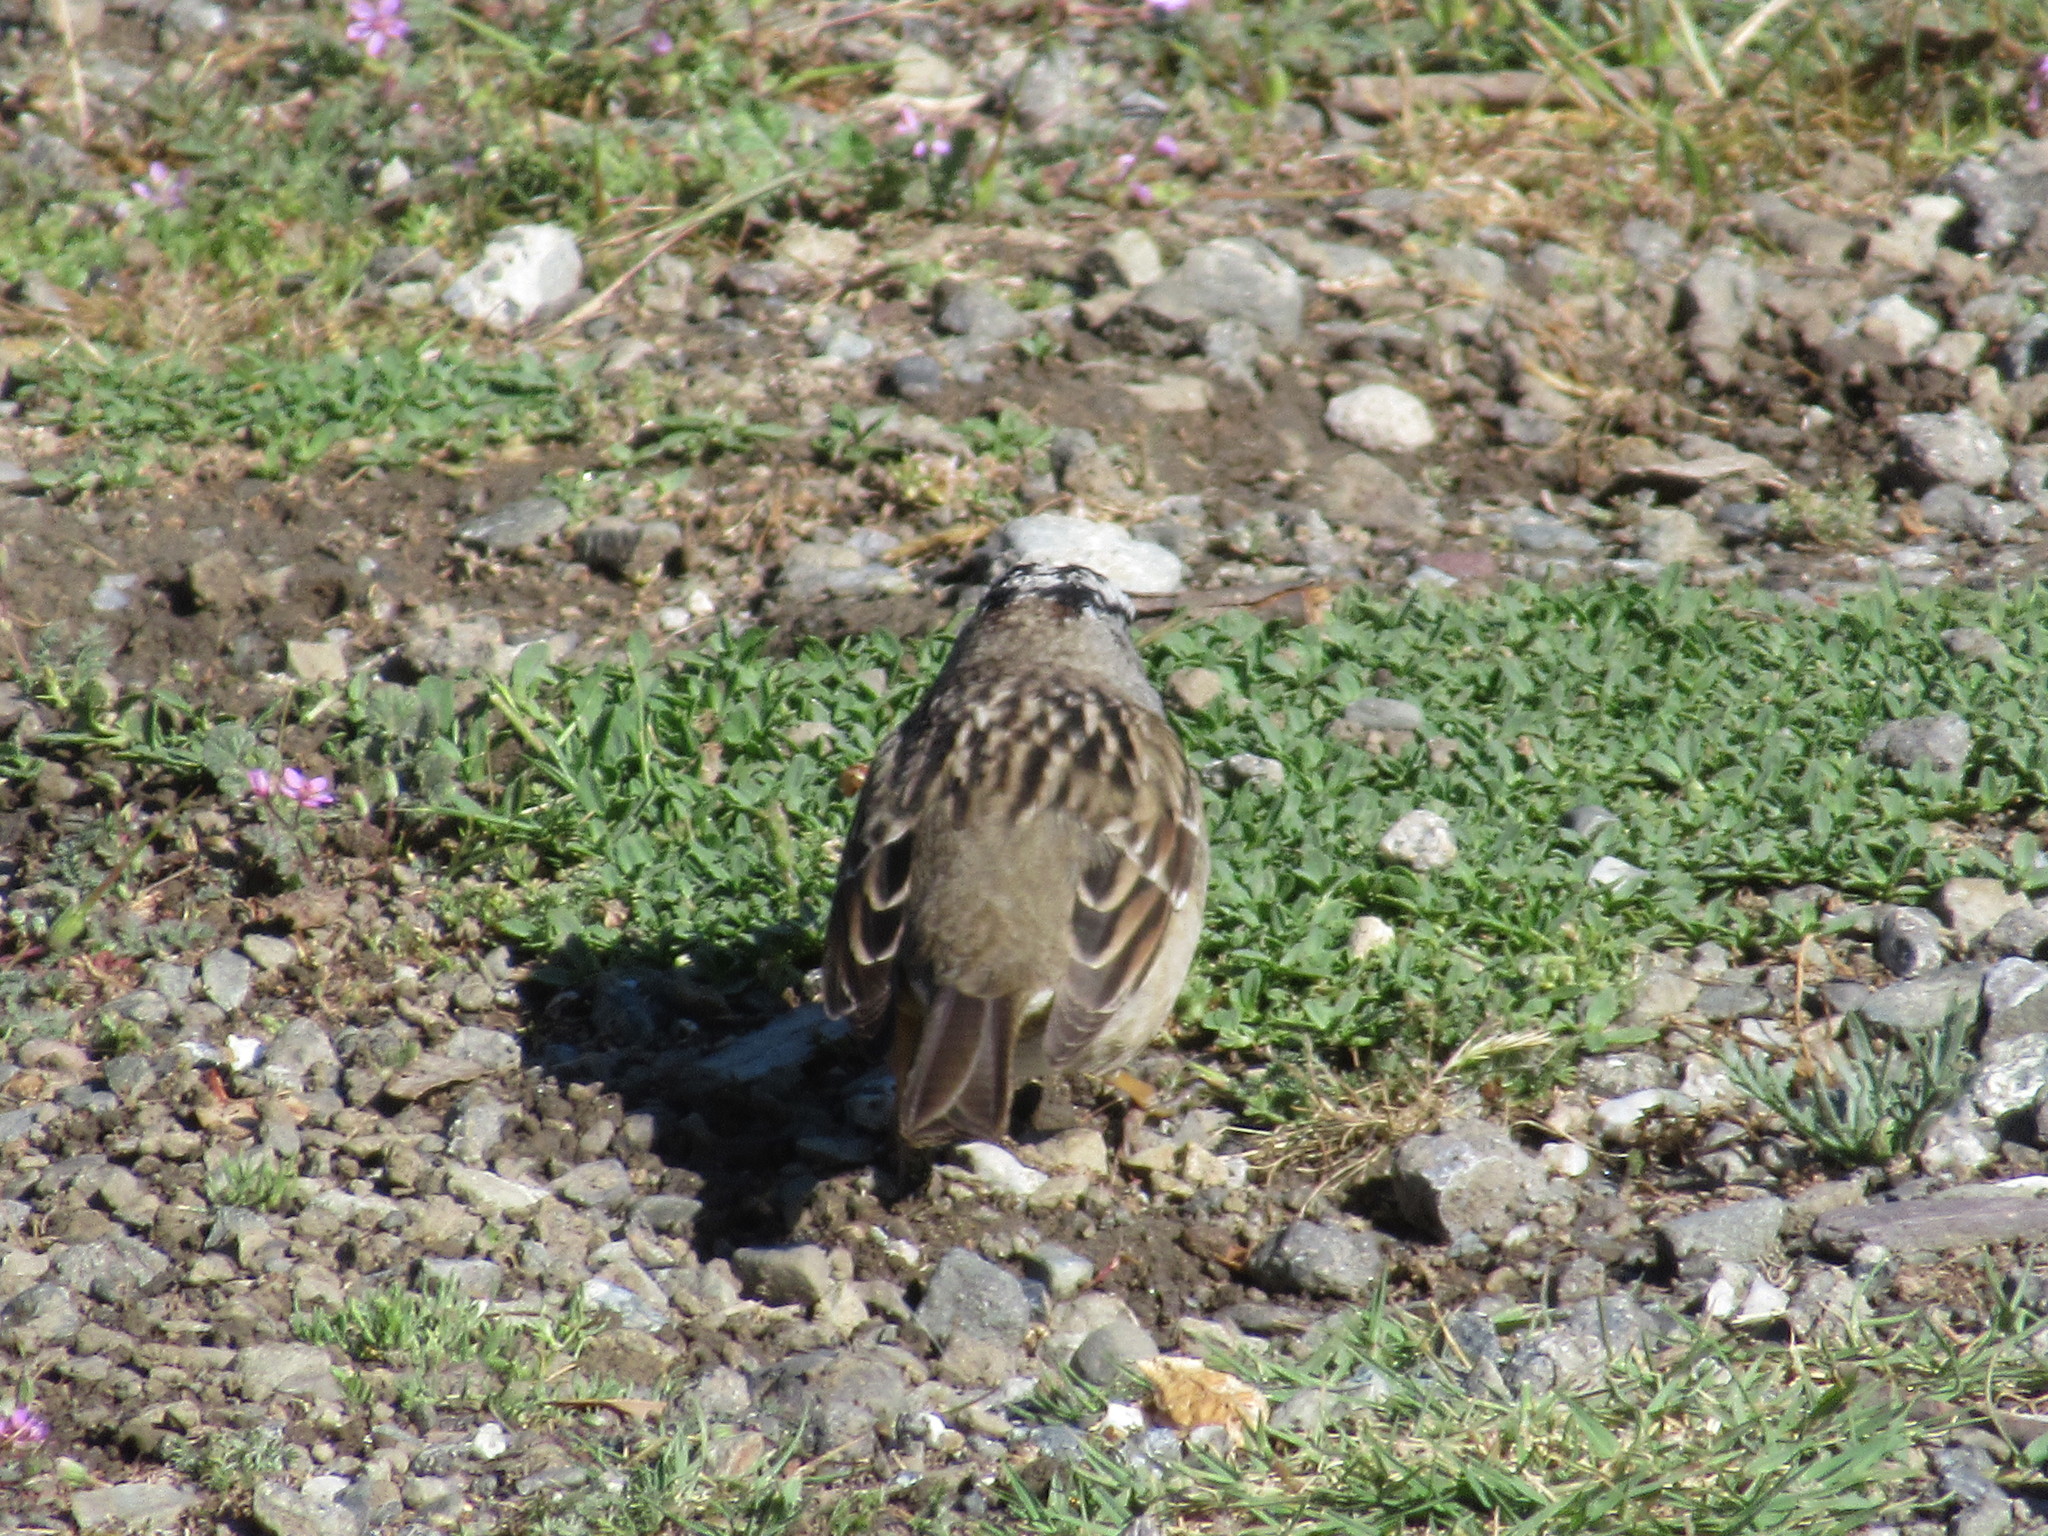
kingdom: Animalia
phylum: Chordata
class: Aves
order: Passeriformes
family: Passerellidae
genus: Zonotrichia
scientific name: Zonotrichia leucophrys
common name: White-crowned sparrow
